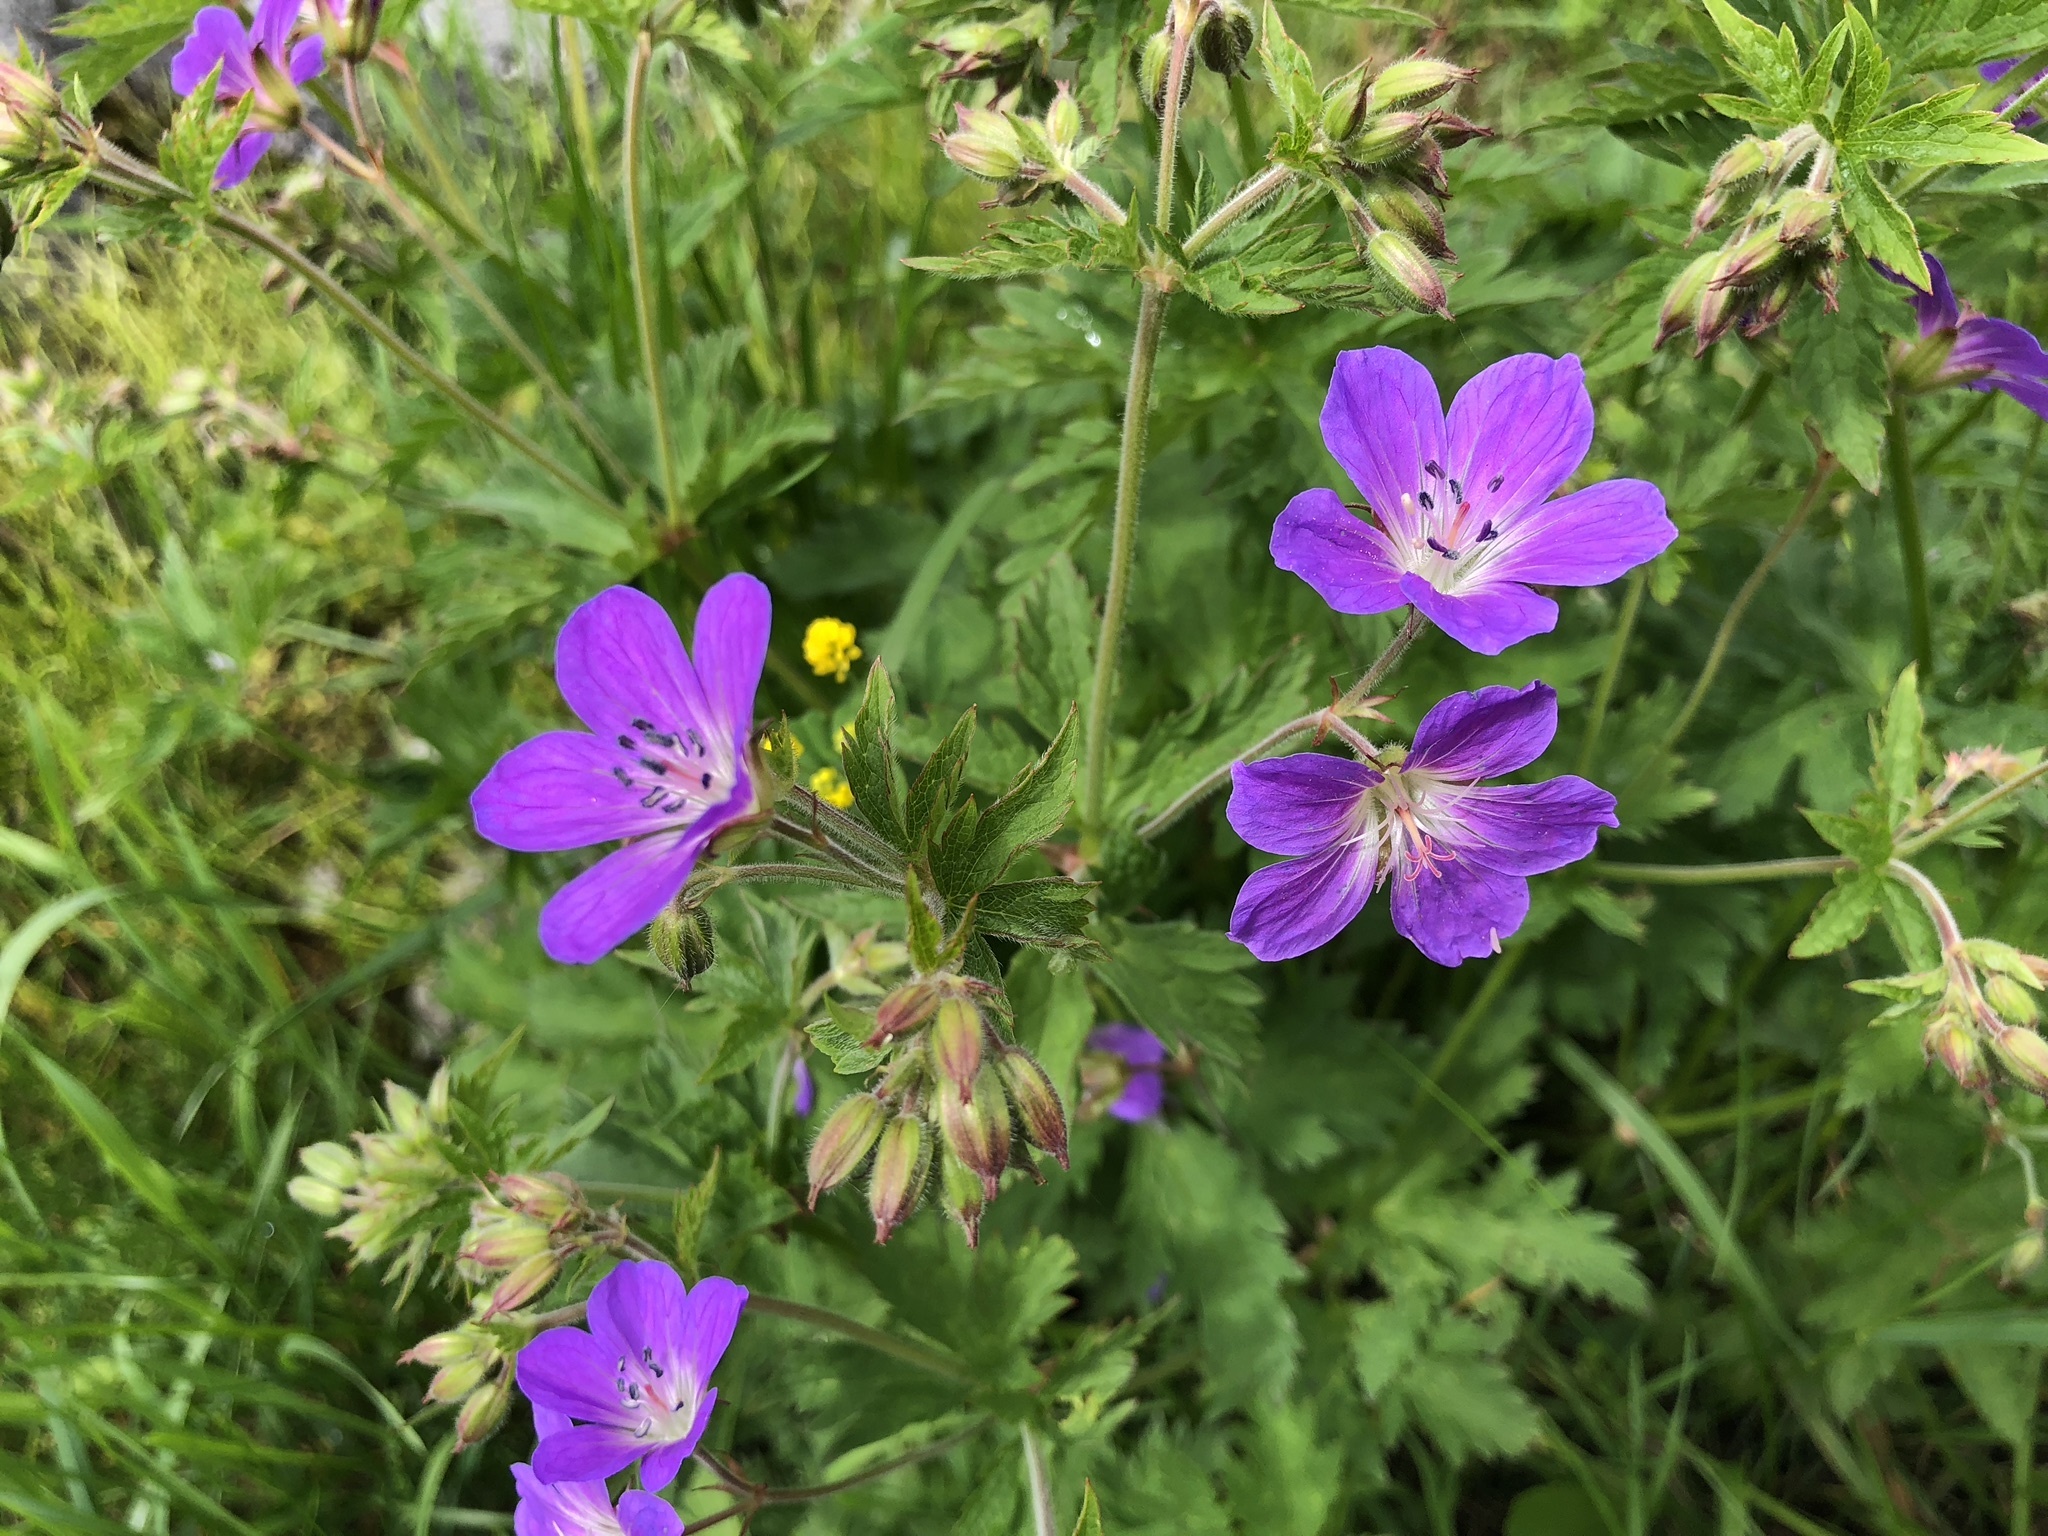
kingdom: Plantae
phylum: Tracheophyta
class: Magnoliopsida
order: Geraniales
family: Geraniaceae
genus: Geranium
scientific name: Geranium sylvaticum
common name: Wood crane's-bill
